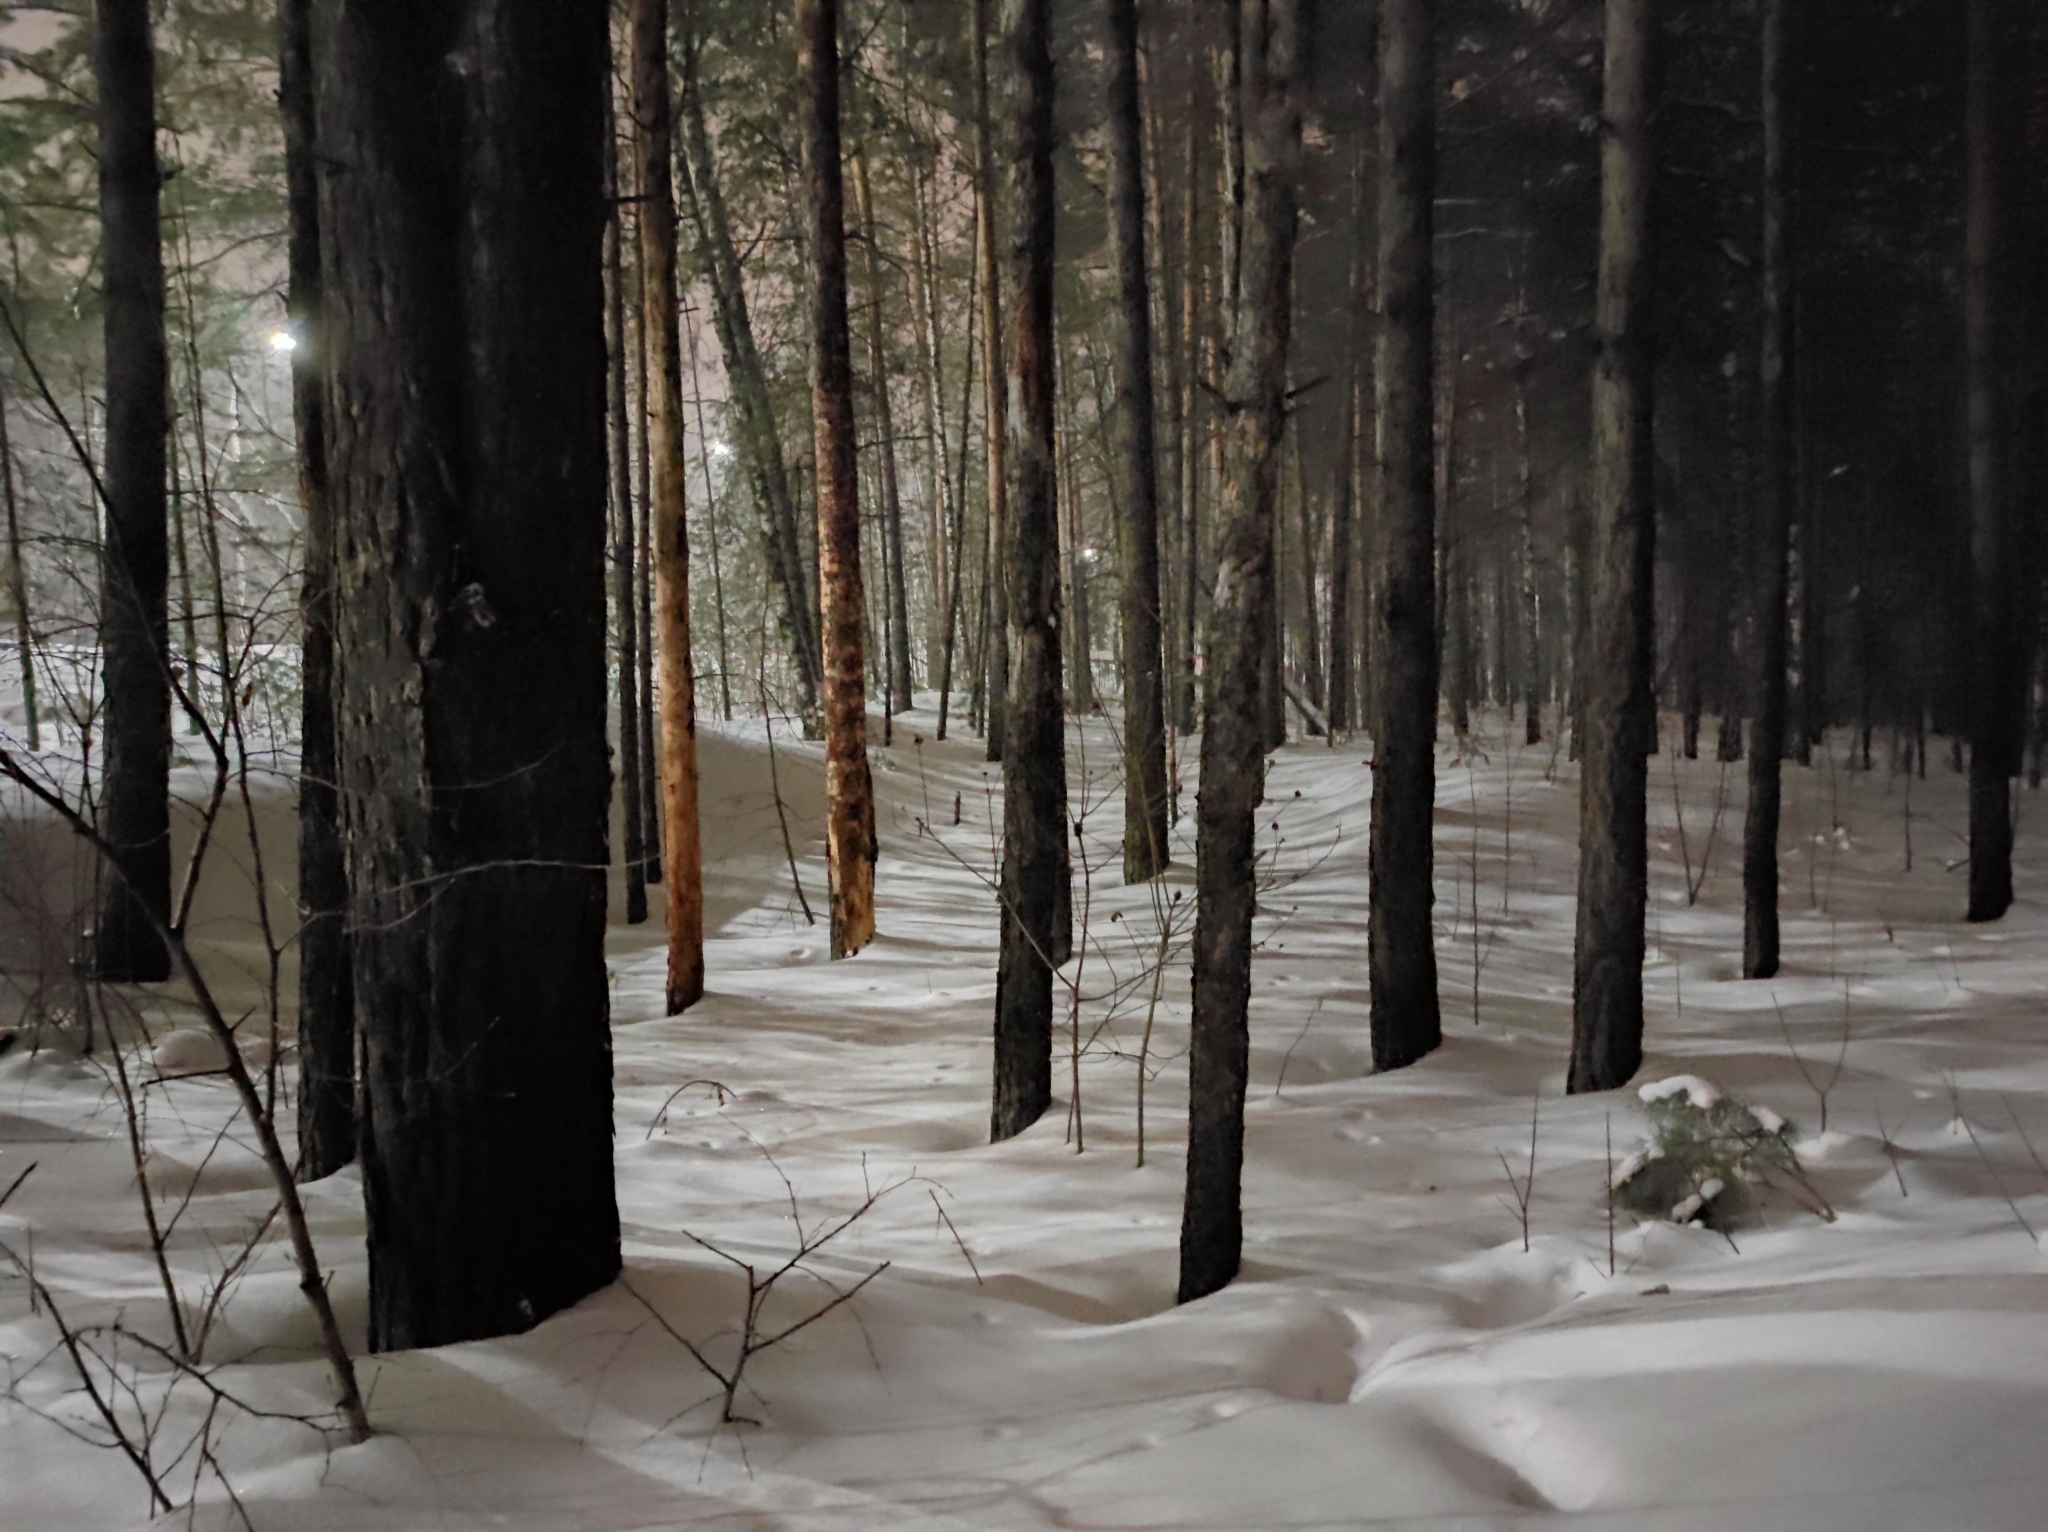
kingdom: Plantae
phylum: Tracheophyta
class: Pinopsida
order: Pinales
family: Pinaceae
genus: Pinus
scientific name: Pinus sylvestris
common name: Scots pine
